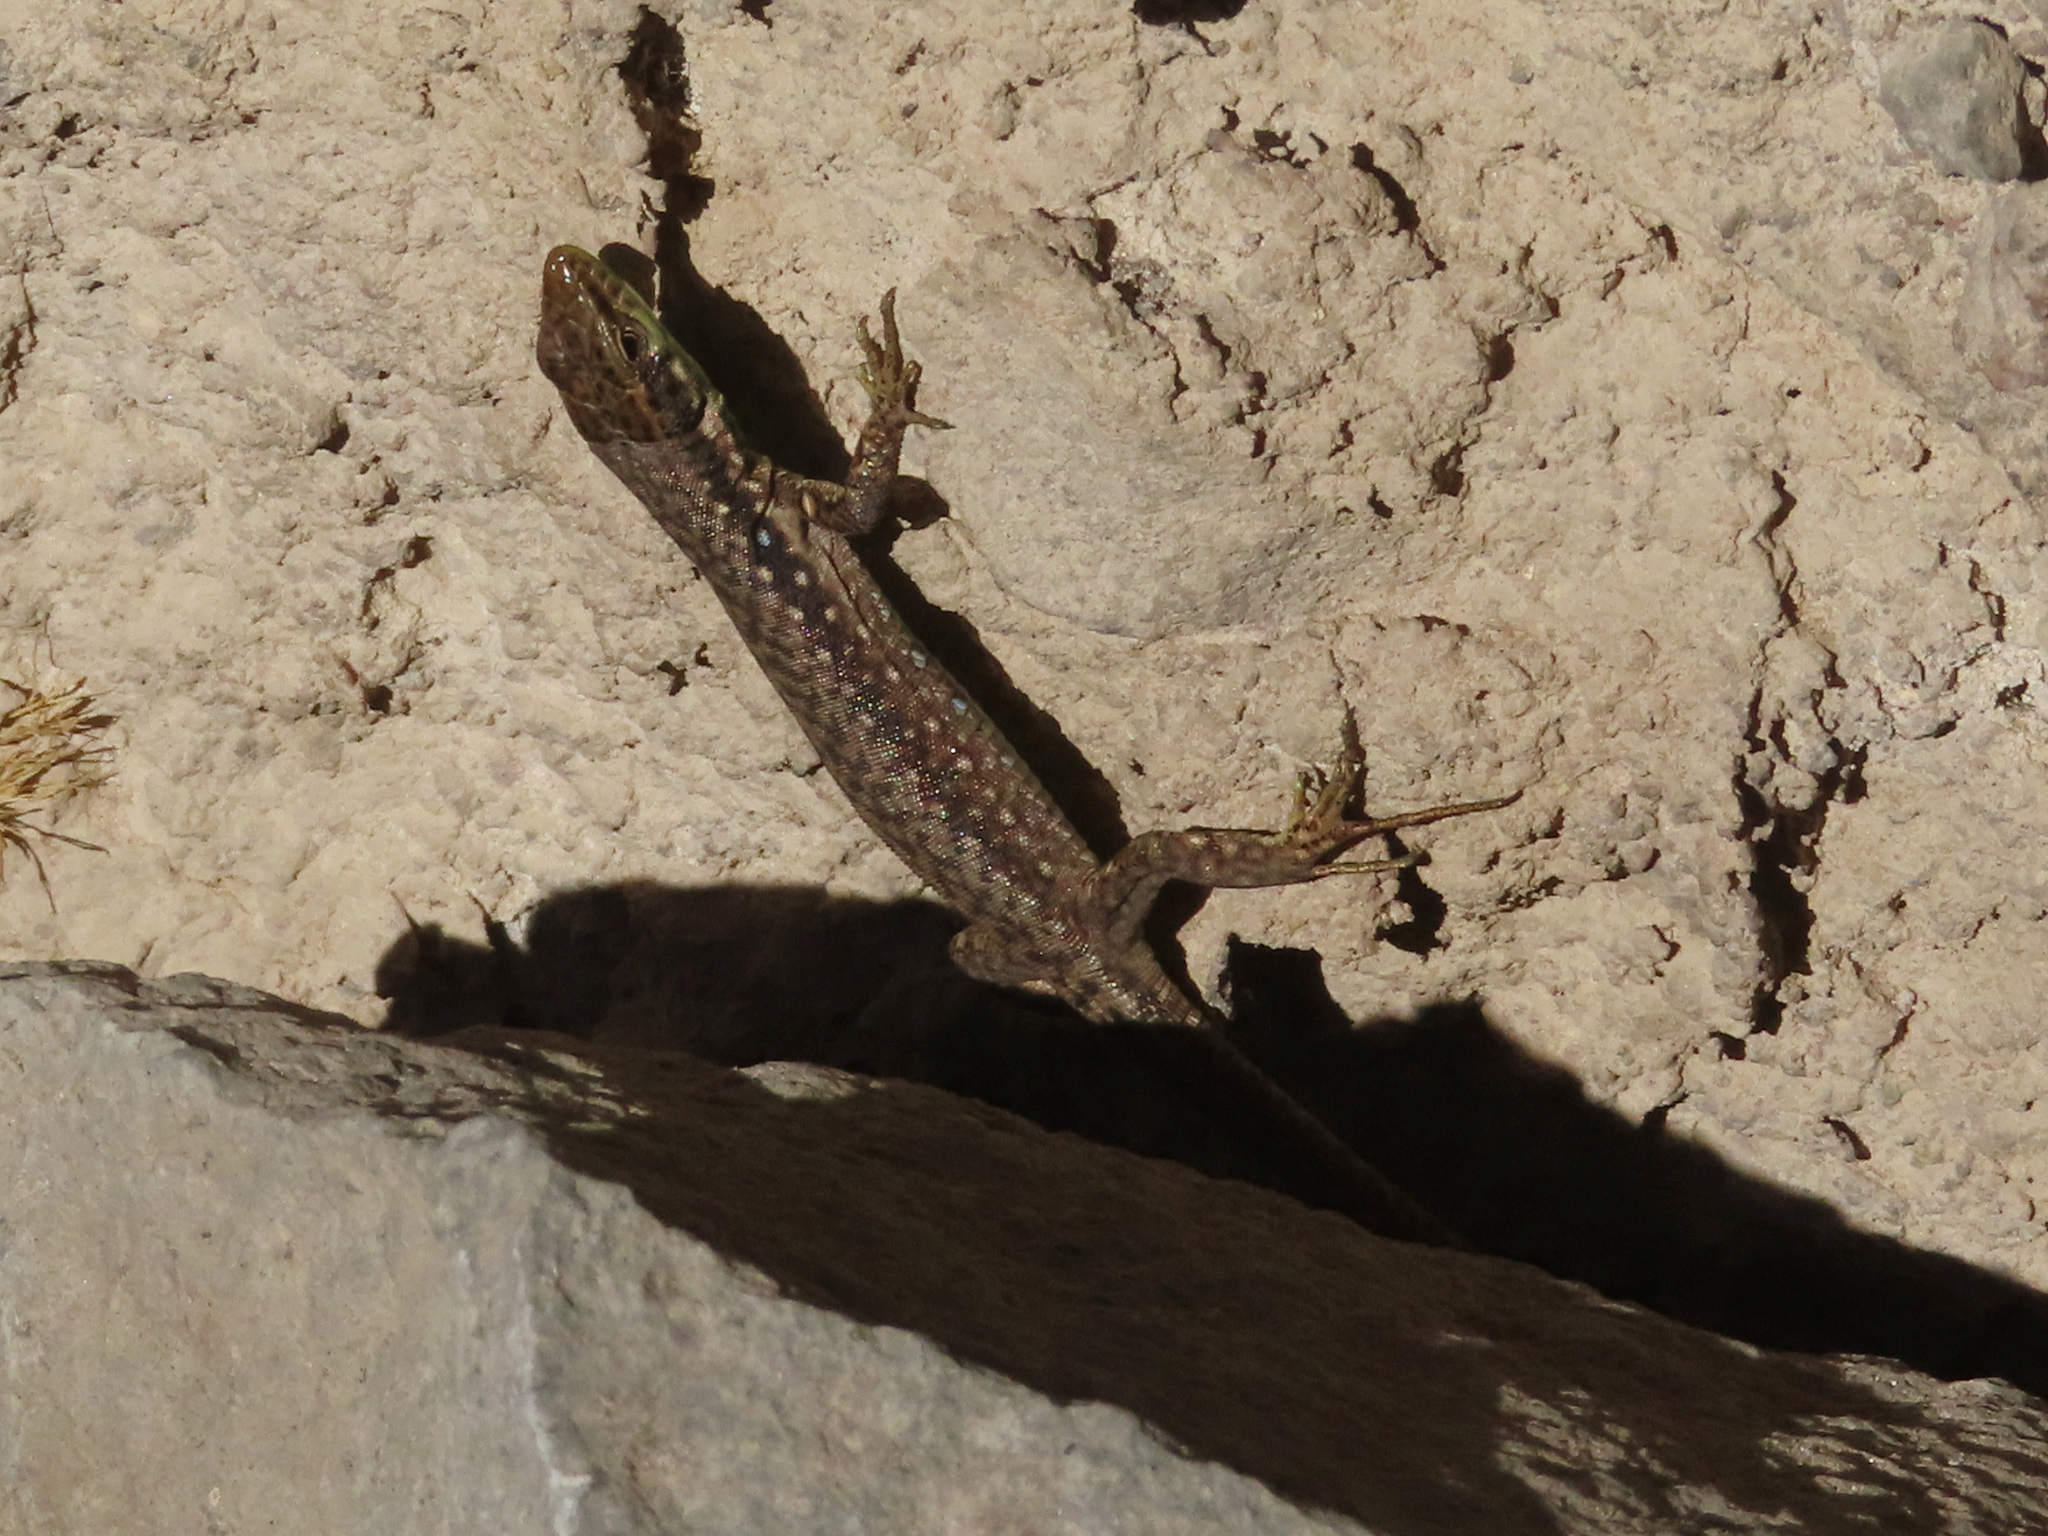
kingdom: Animalia
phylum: Chordata
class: Squamata
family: Lacertidae
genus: Darevskia
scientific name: Darevskia raddei
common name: Radde's lizard
